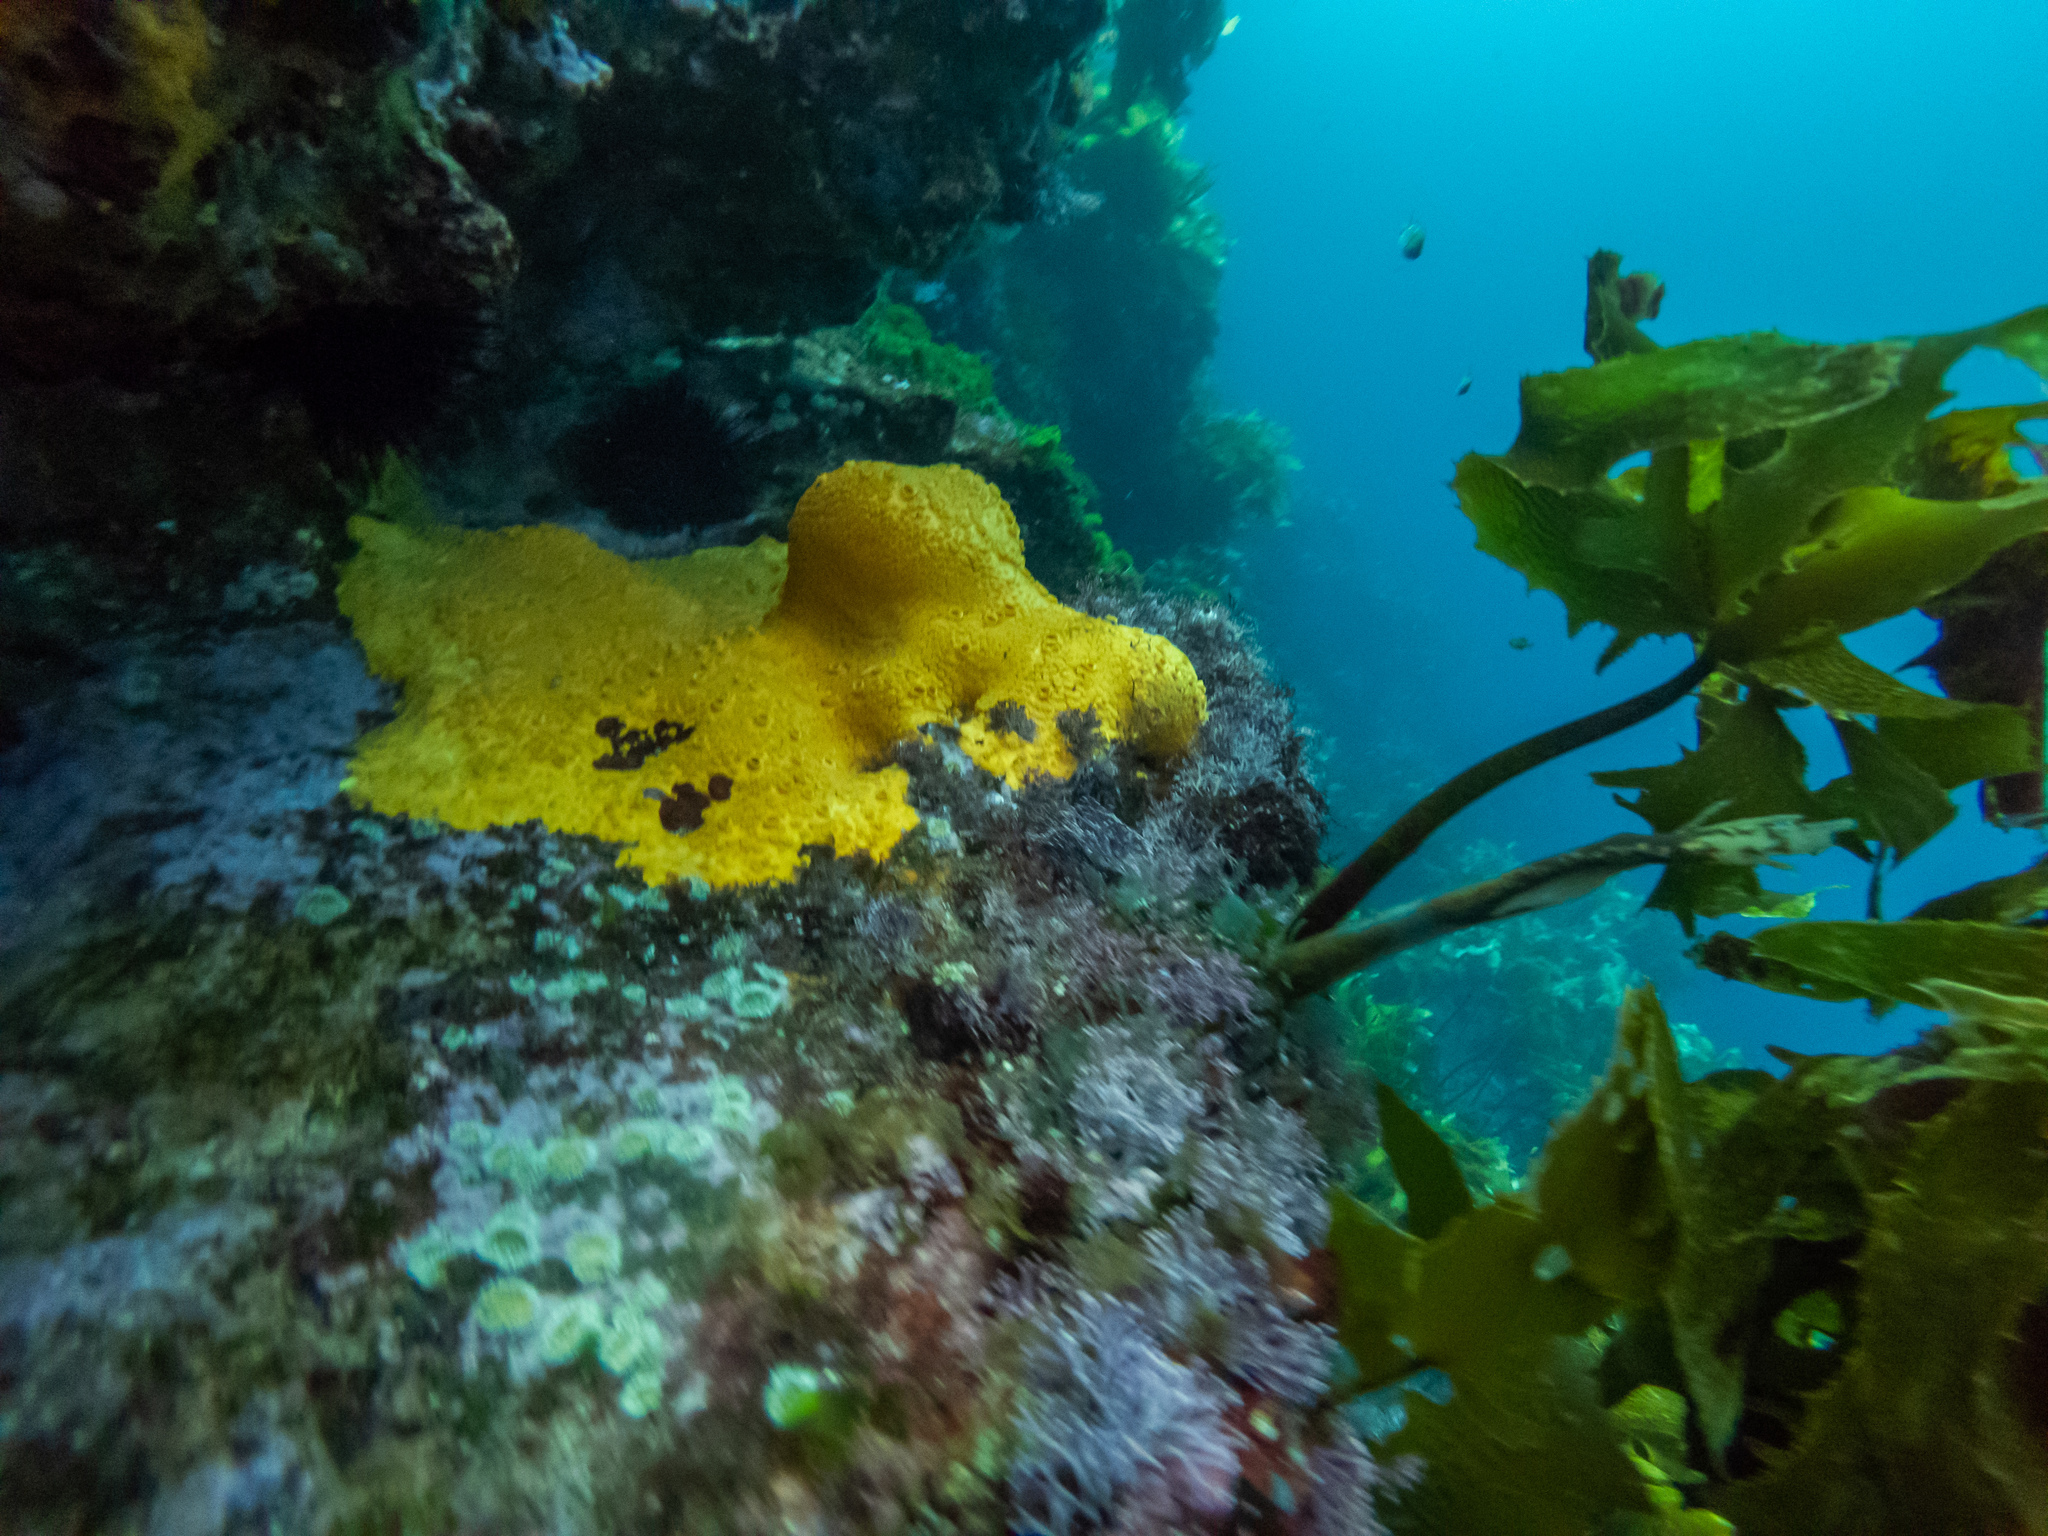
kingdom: Animalia
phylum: Porifera
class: Demospongiae
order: Clionaida
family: Clionaidae
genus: Cliona
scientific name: Cliona celata
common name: Boring sponge
